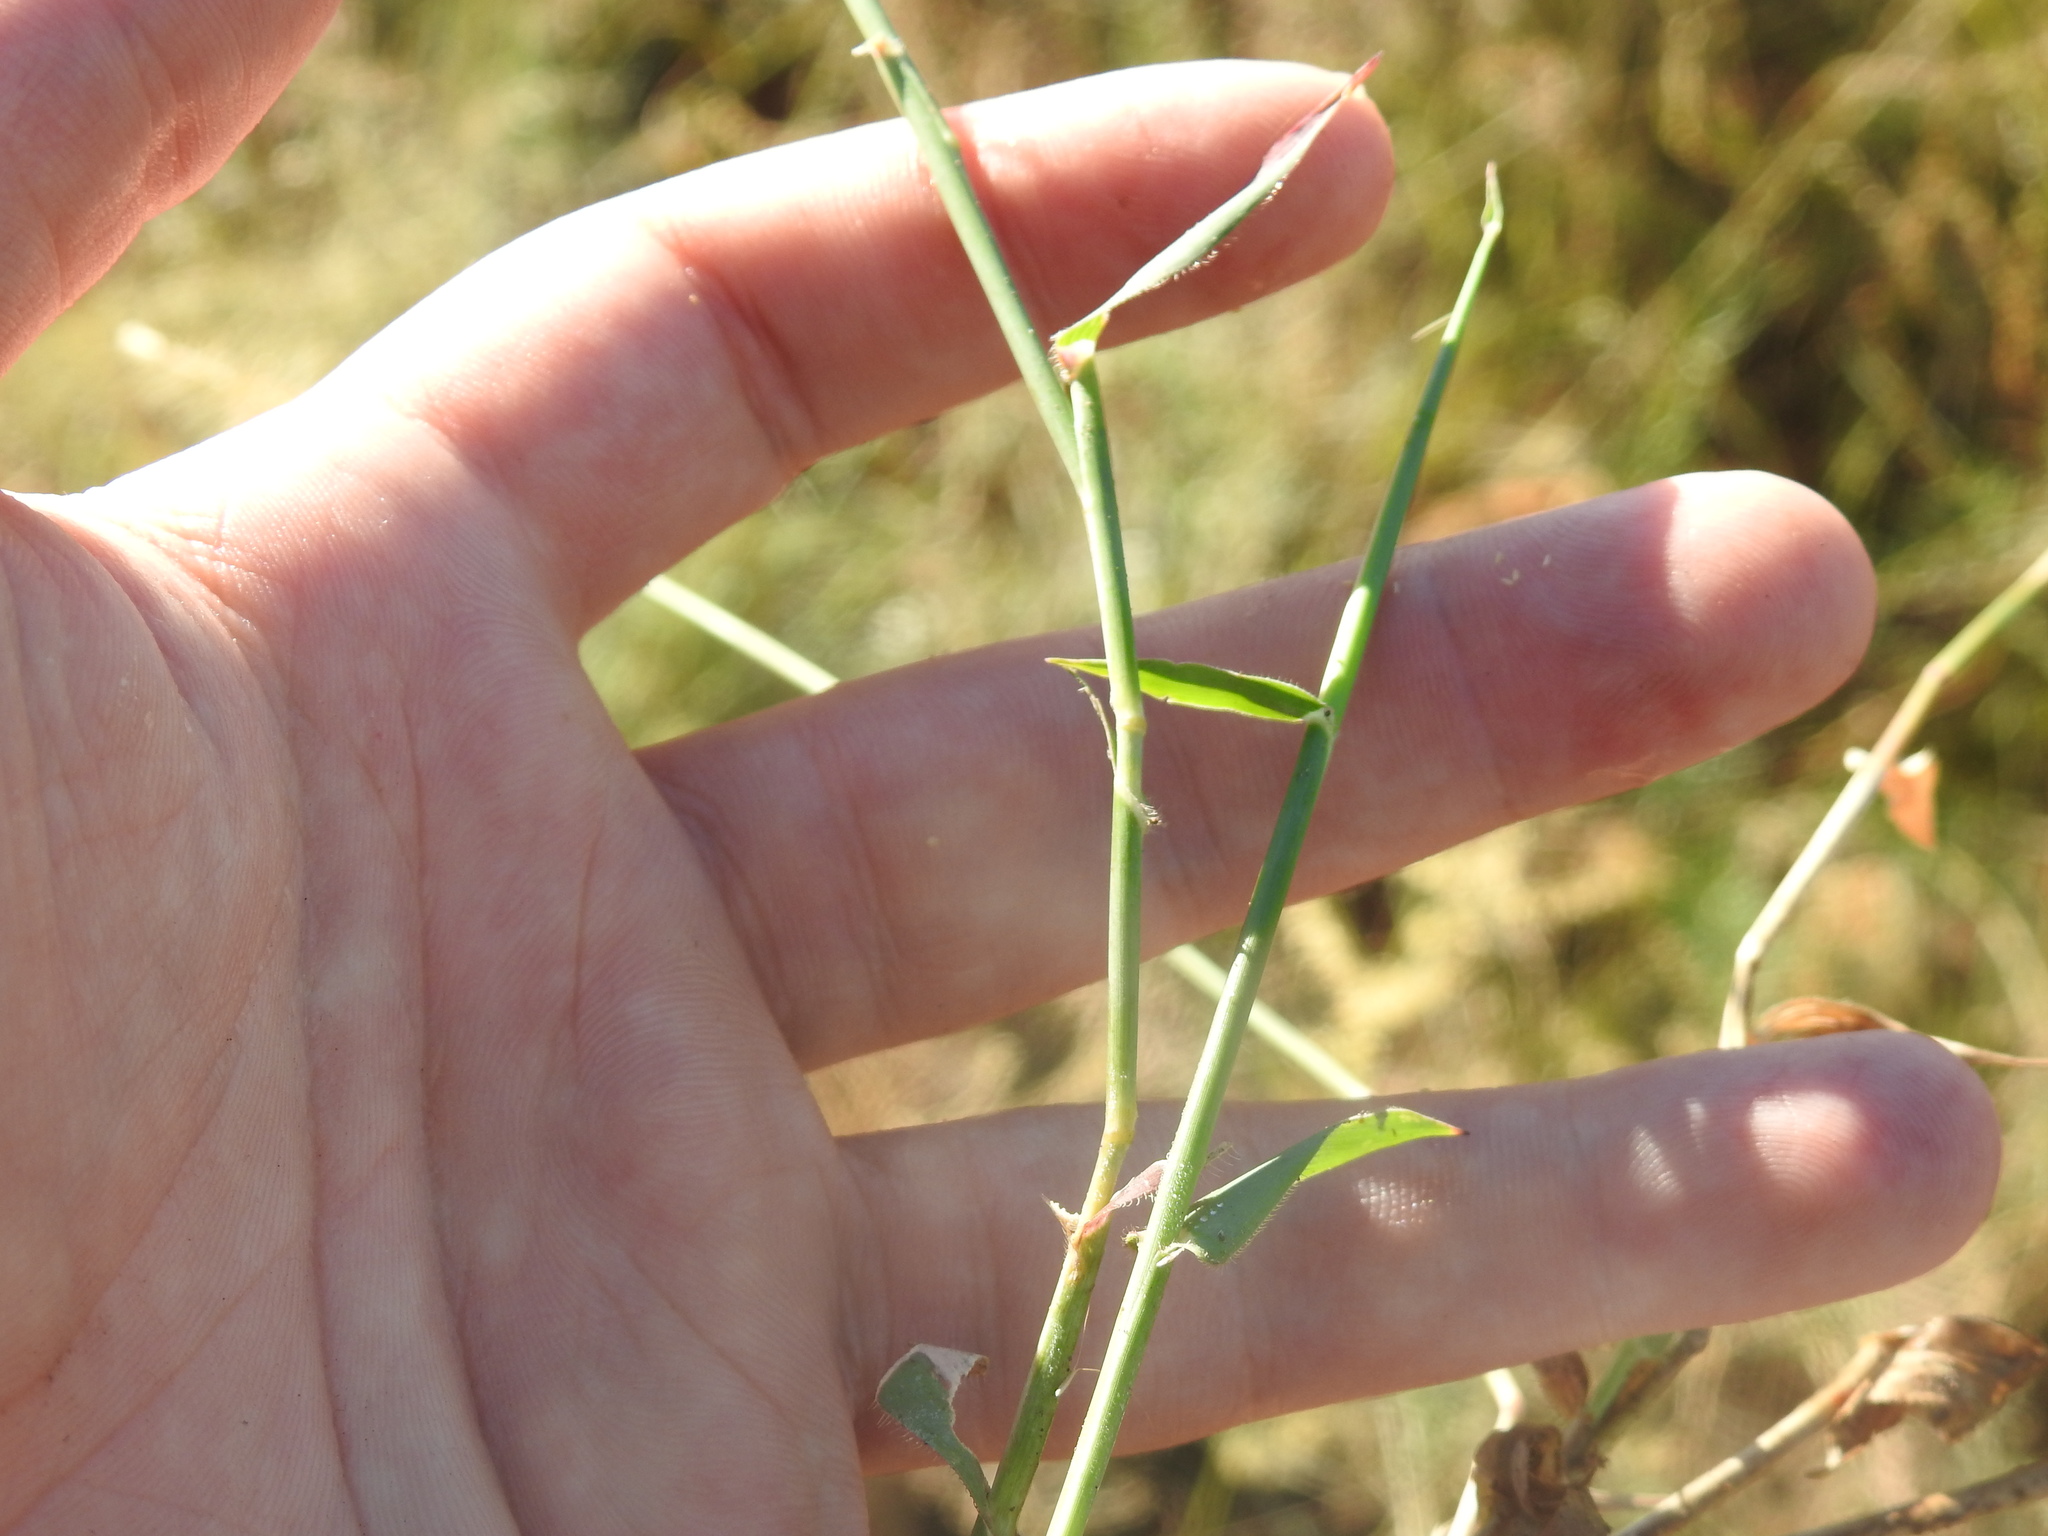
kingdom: Plantae
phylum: Tracheophyta
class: Liliopsida
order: Poales
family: Poaceae
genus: Perotis
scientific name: Perotis patens
